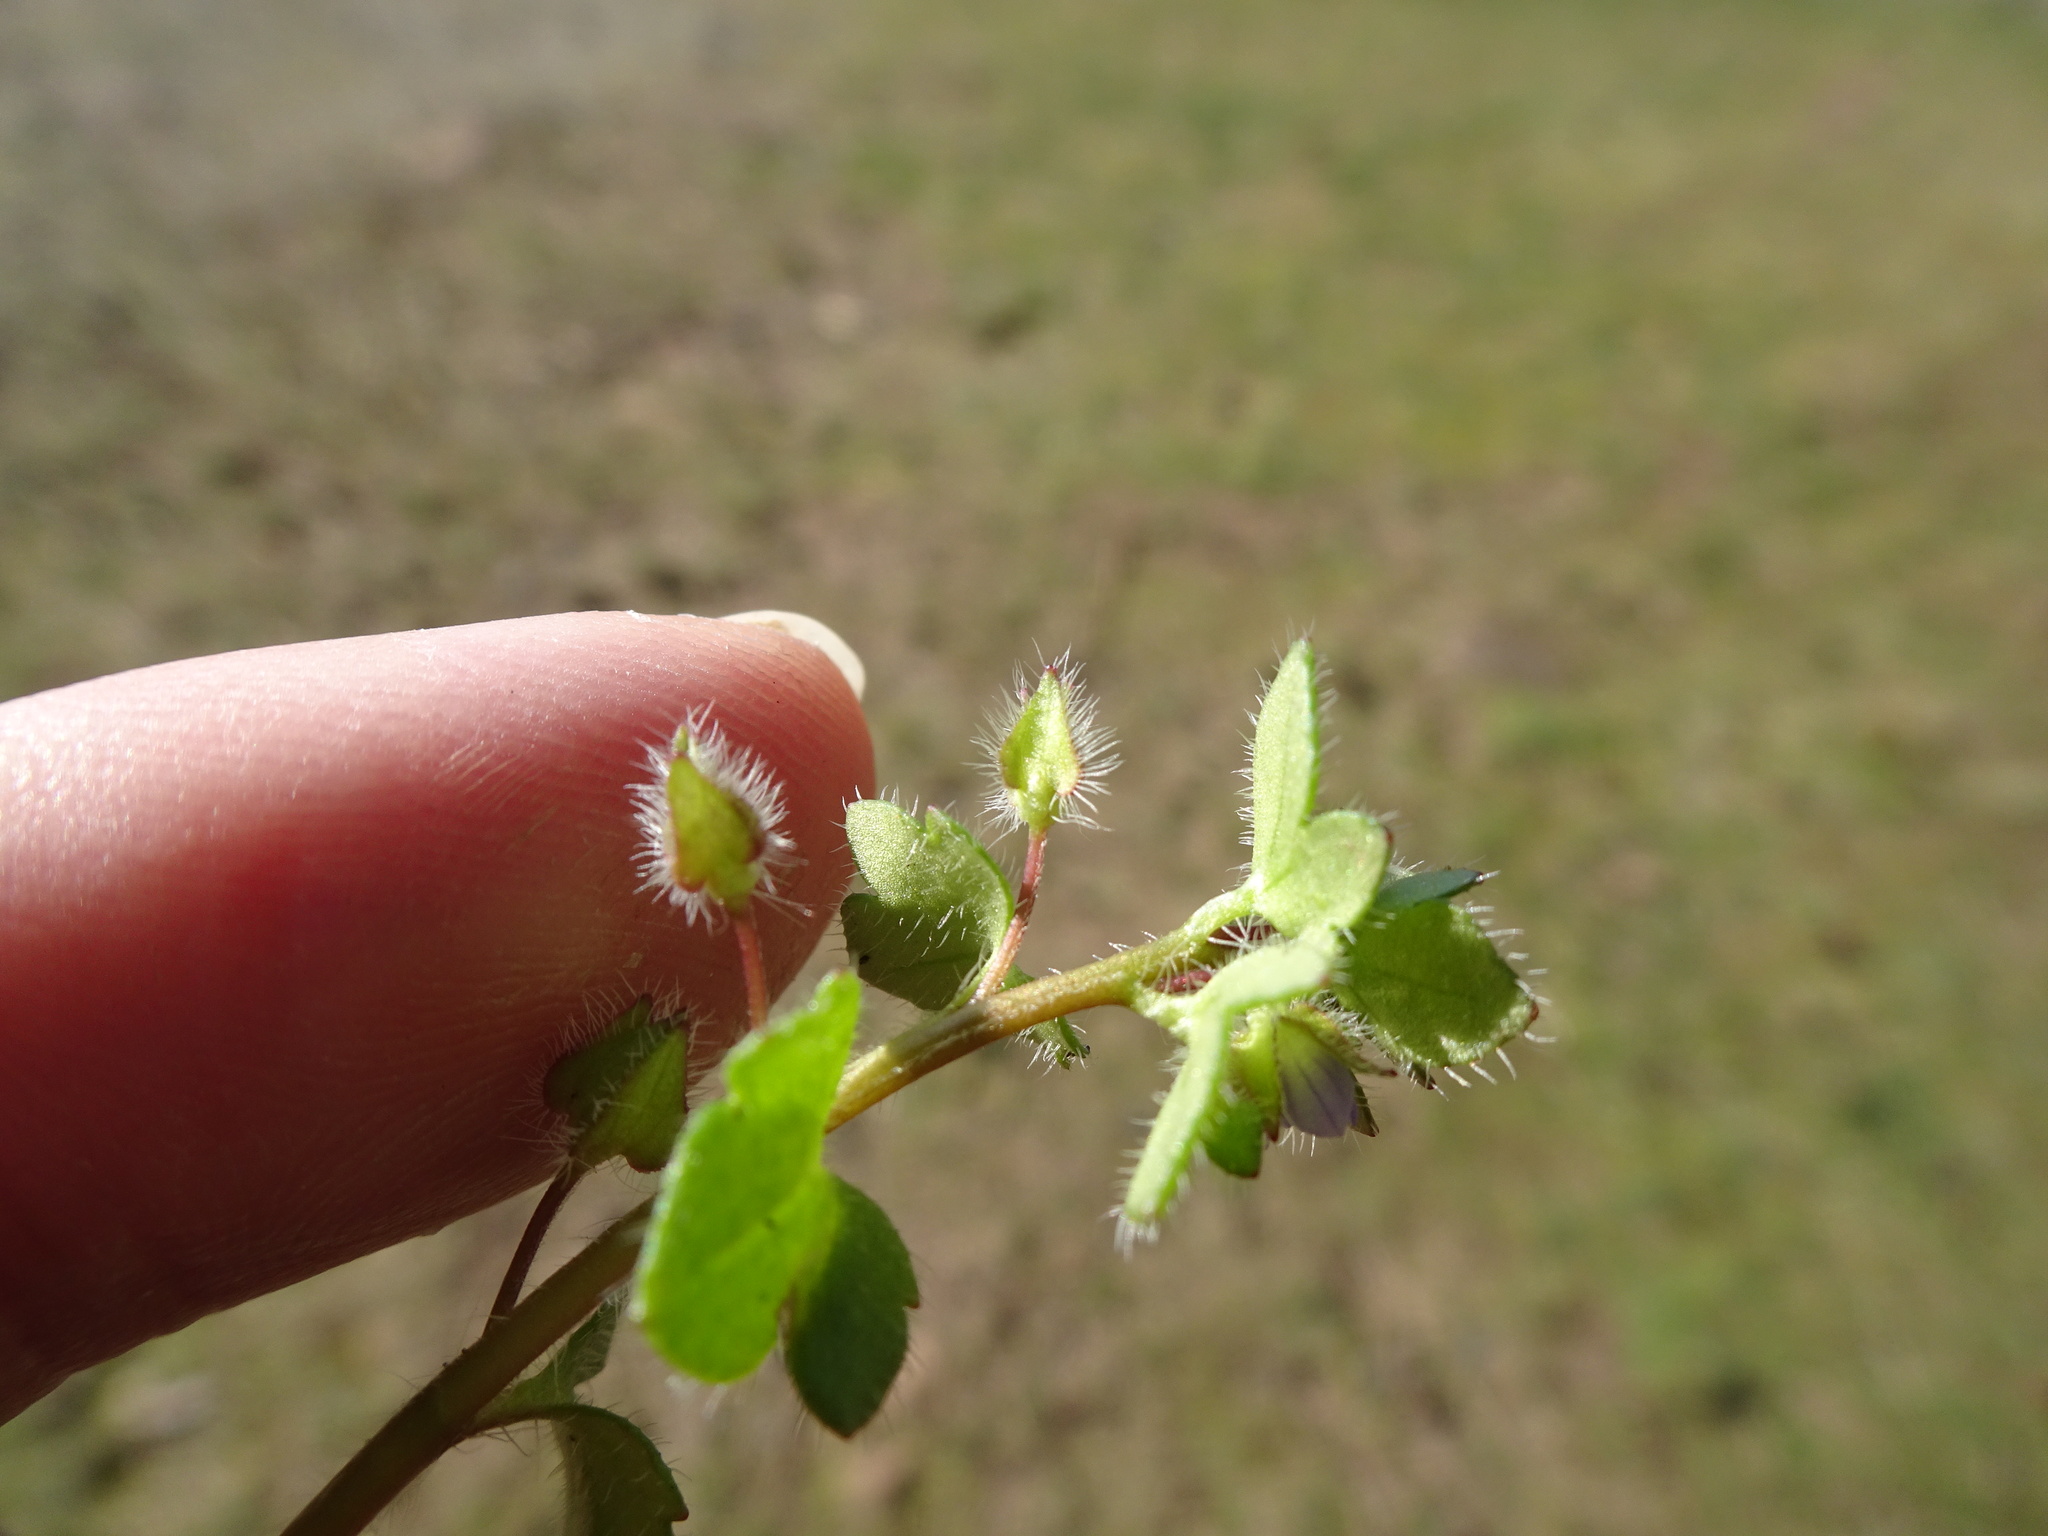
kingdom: Plantae
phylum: Tracheophyta
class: Magnoliopsida
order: Lamiales
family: Plantaginaceae
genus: Veronica
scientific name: Veronica hederifolia
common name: Ivy-leaved speedwell
